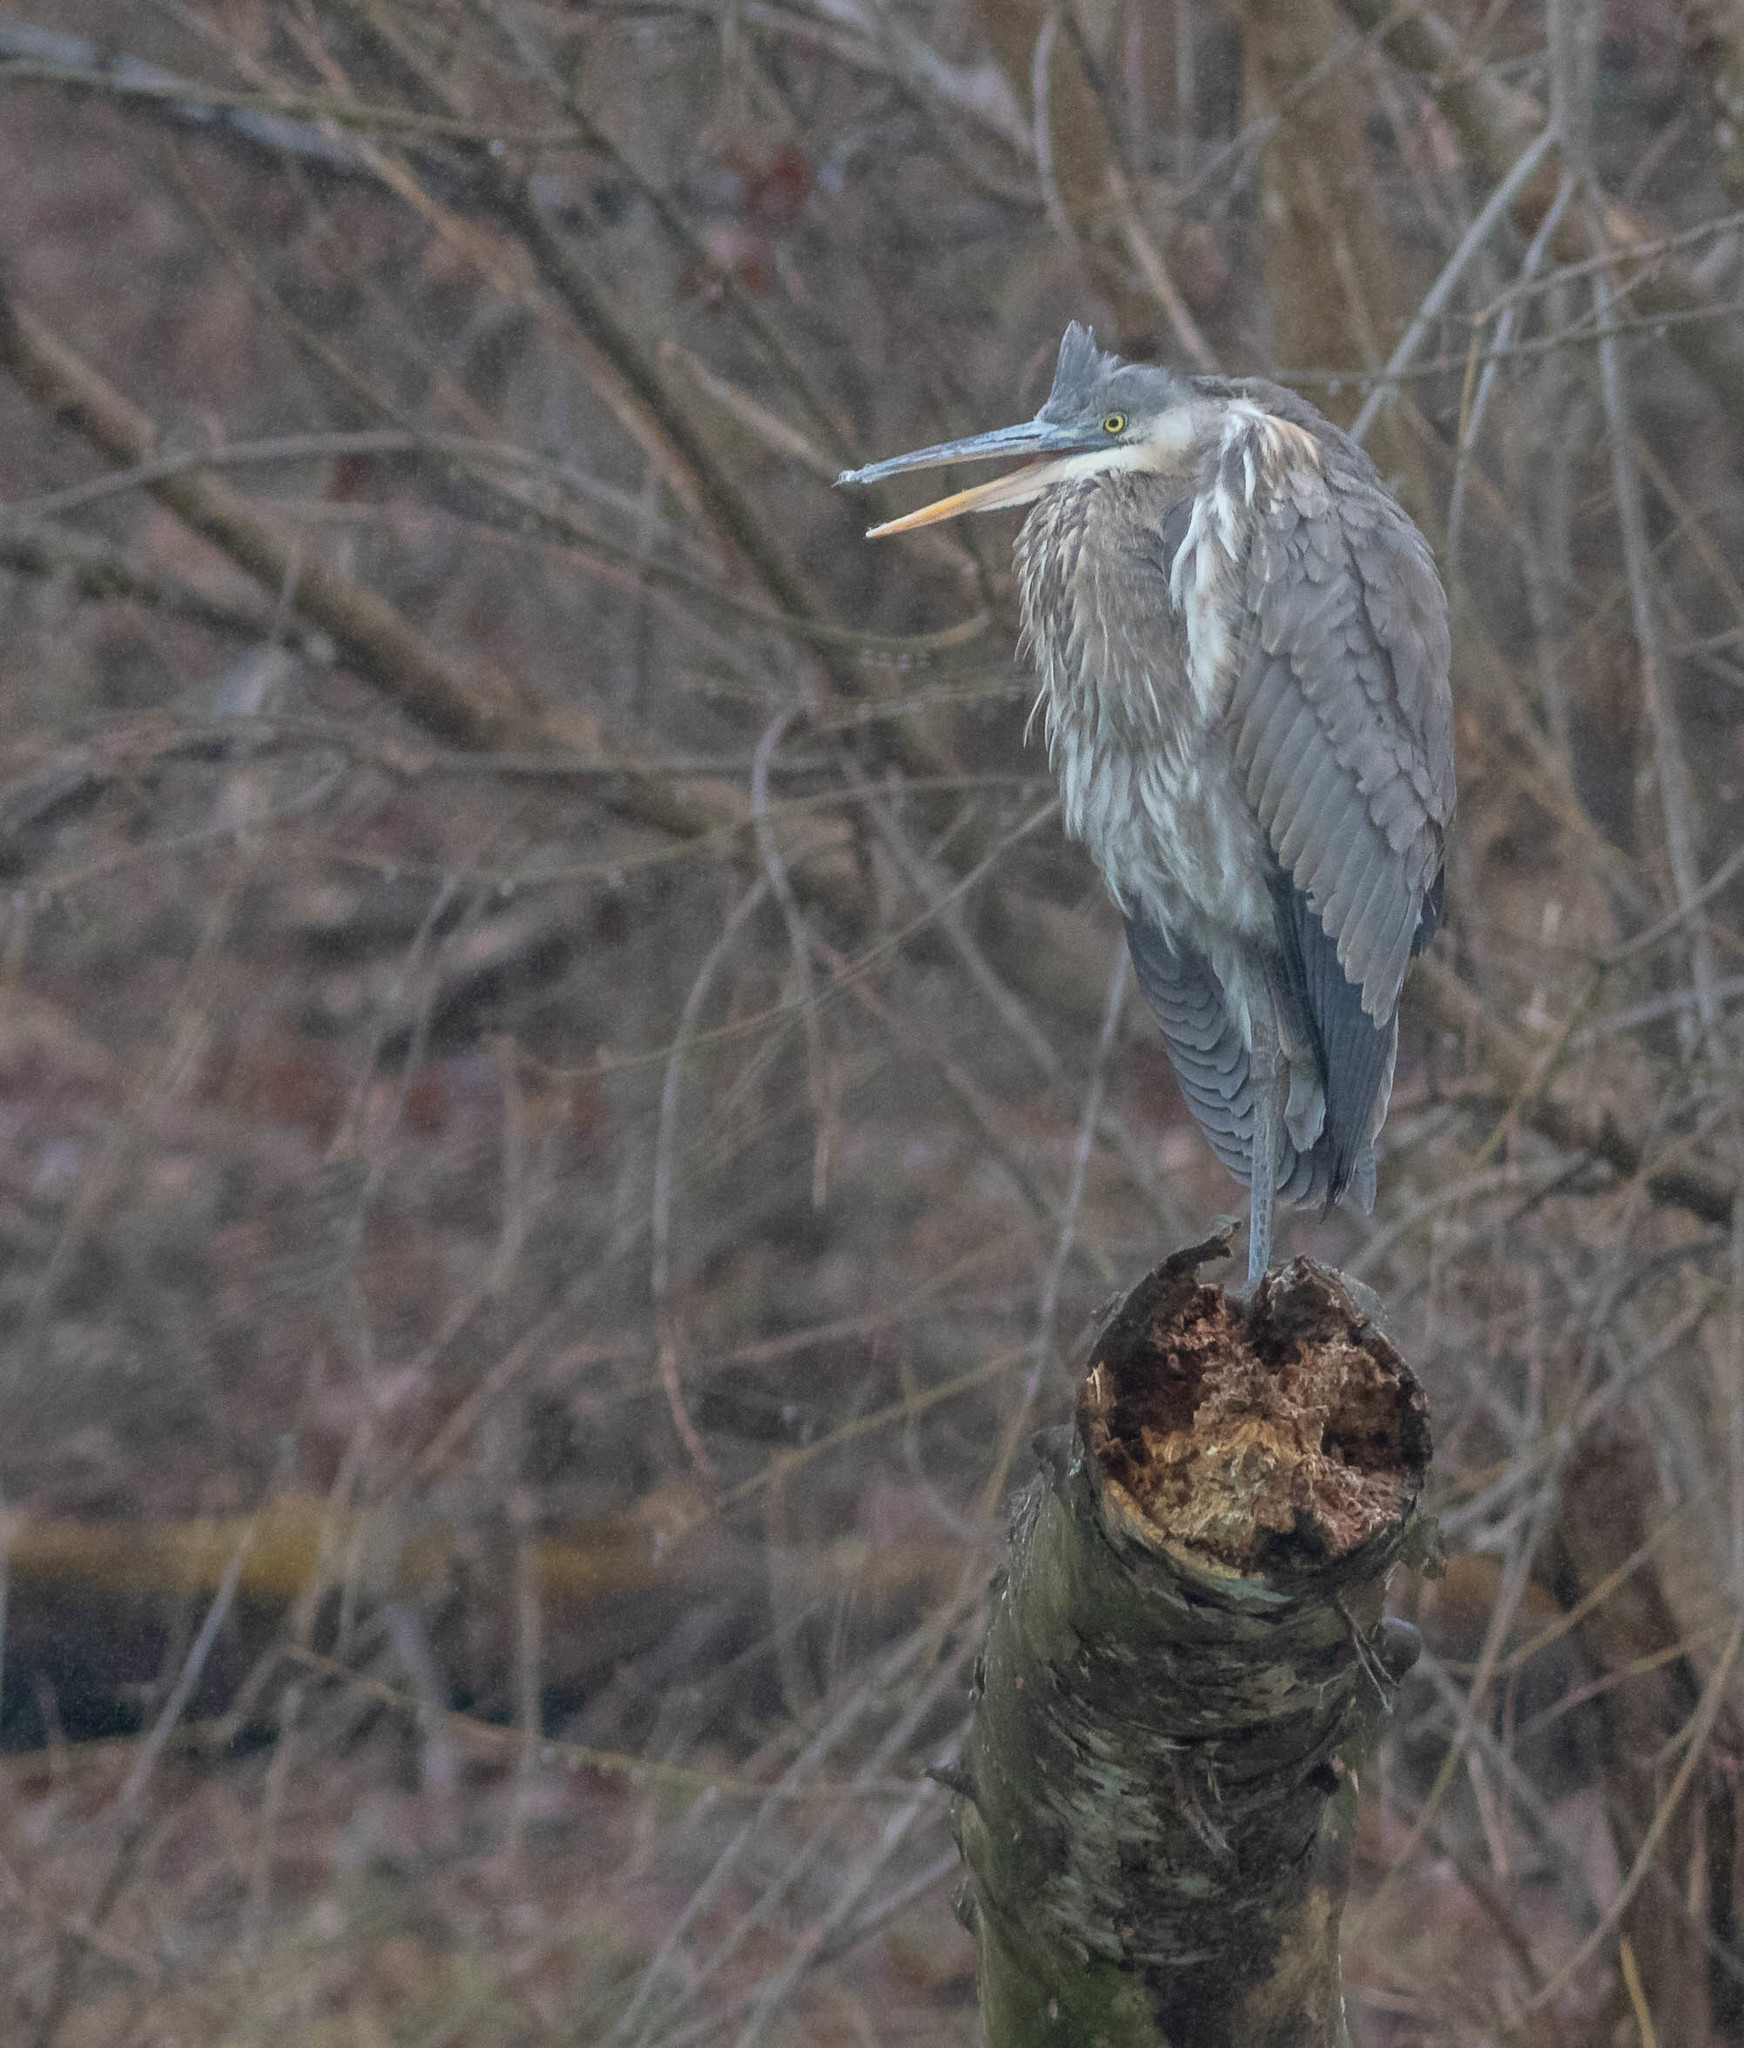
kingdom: Animalia
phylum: Chordata
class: Aves
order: Pelecaniformes
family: Ardeidae
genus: Ardea
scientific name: Ardea herodias
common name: Great blue heron
